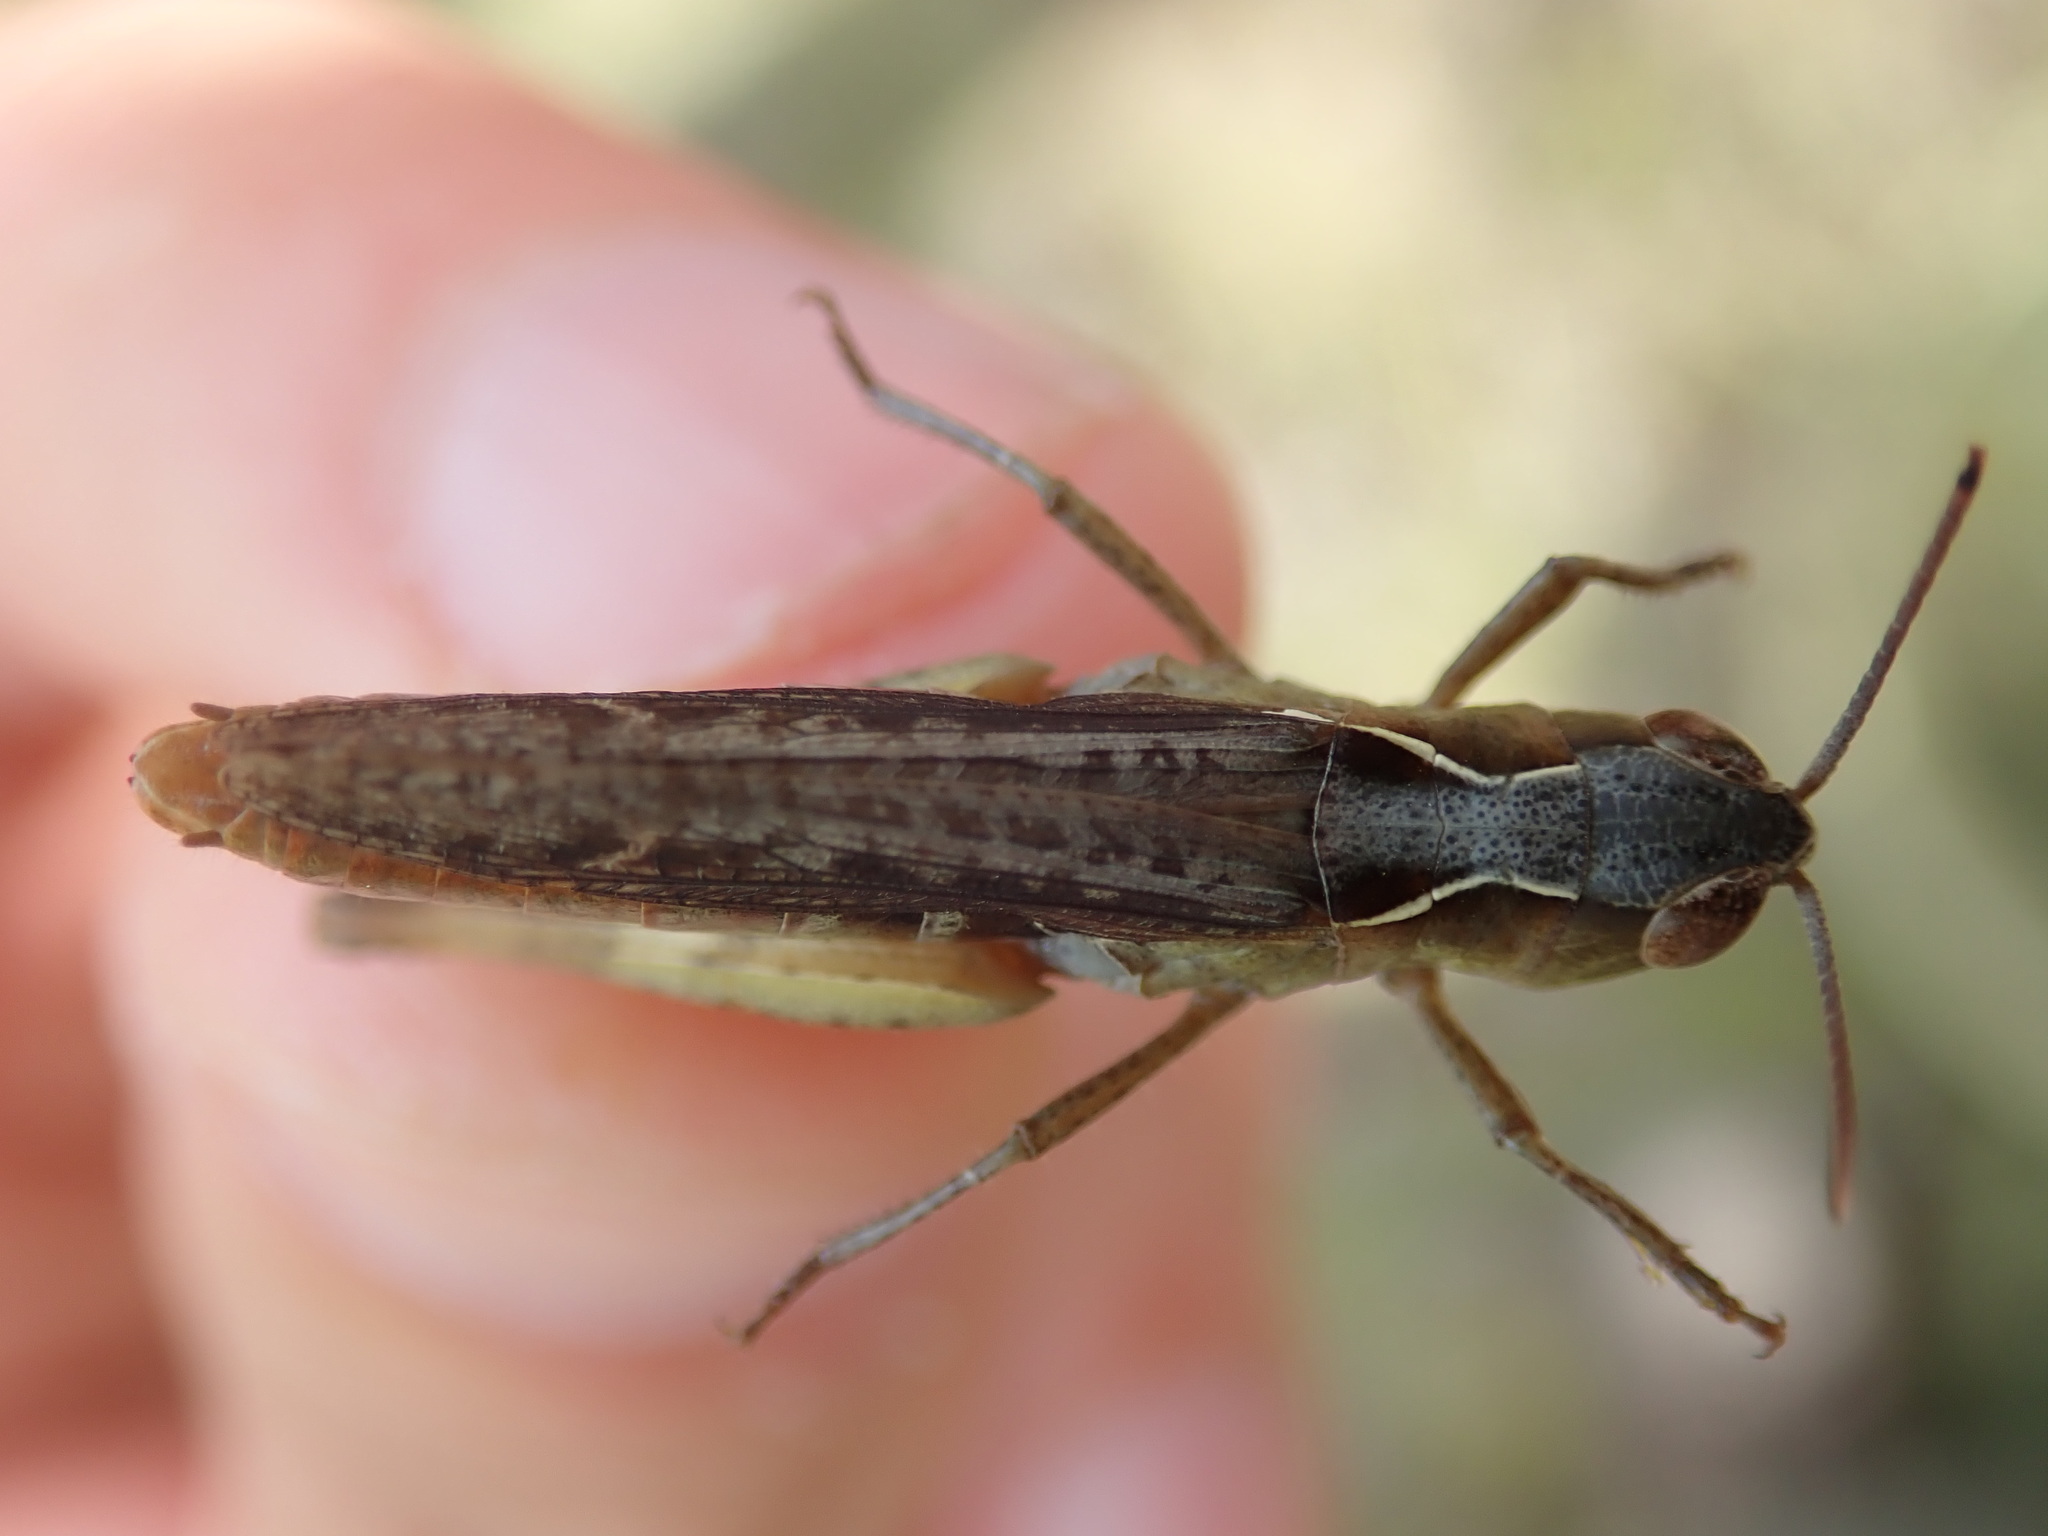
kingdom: Animalia
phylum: Arthropoda
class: Insecta
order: Orthoptera
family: Acrididae
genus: Chorthippus
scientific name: Chorthippus vagans
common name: Heath grasshopper
